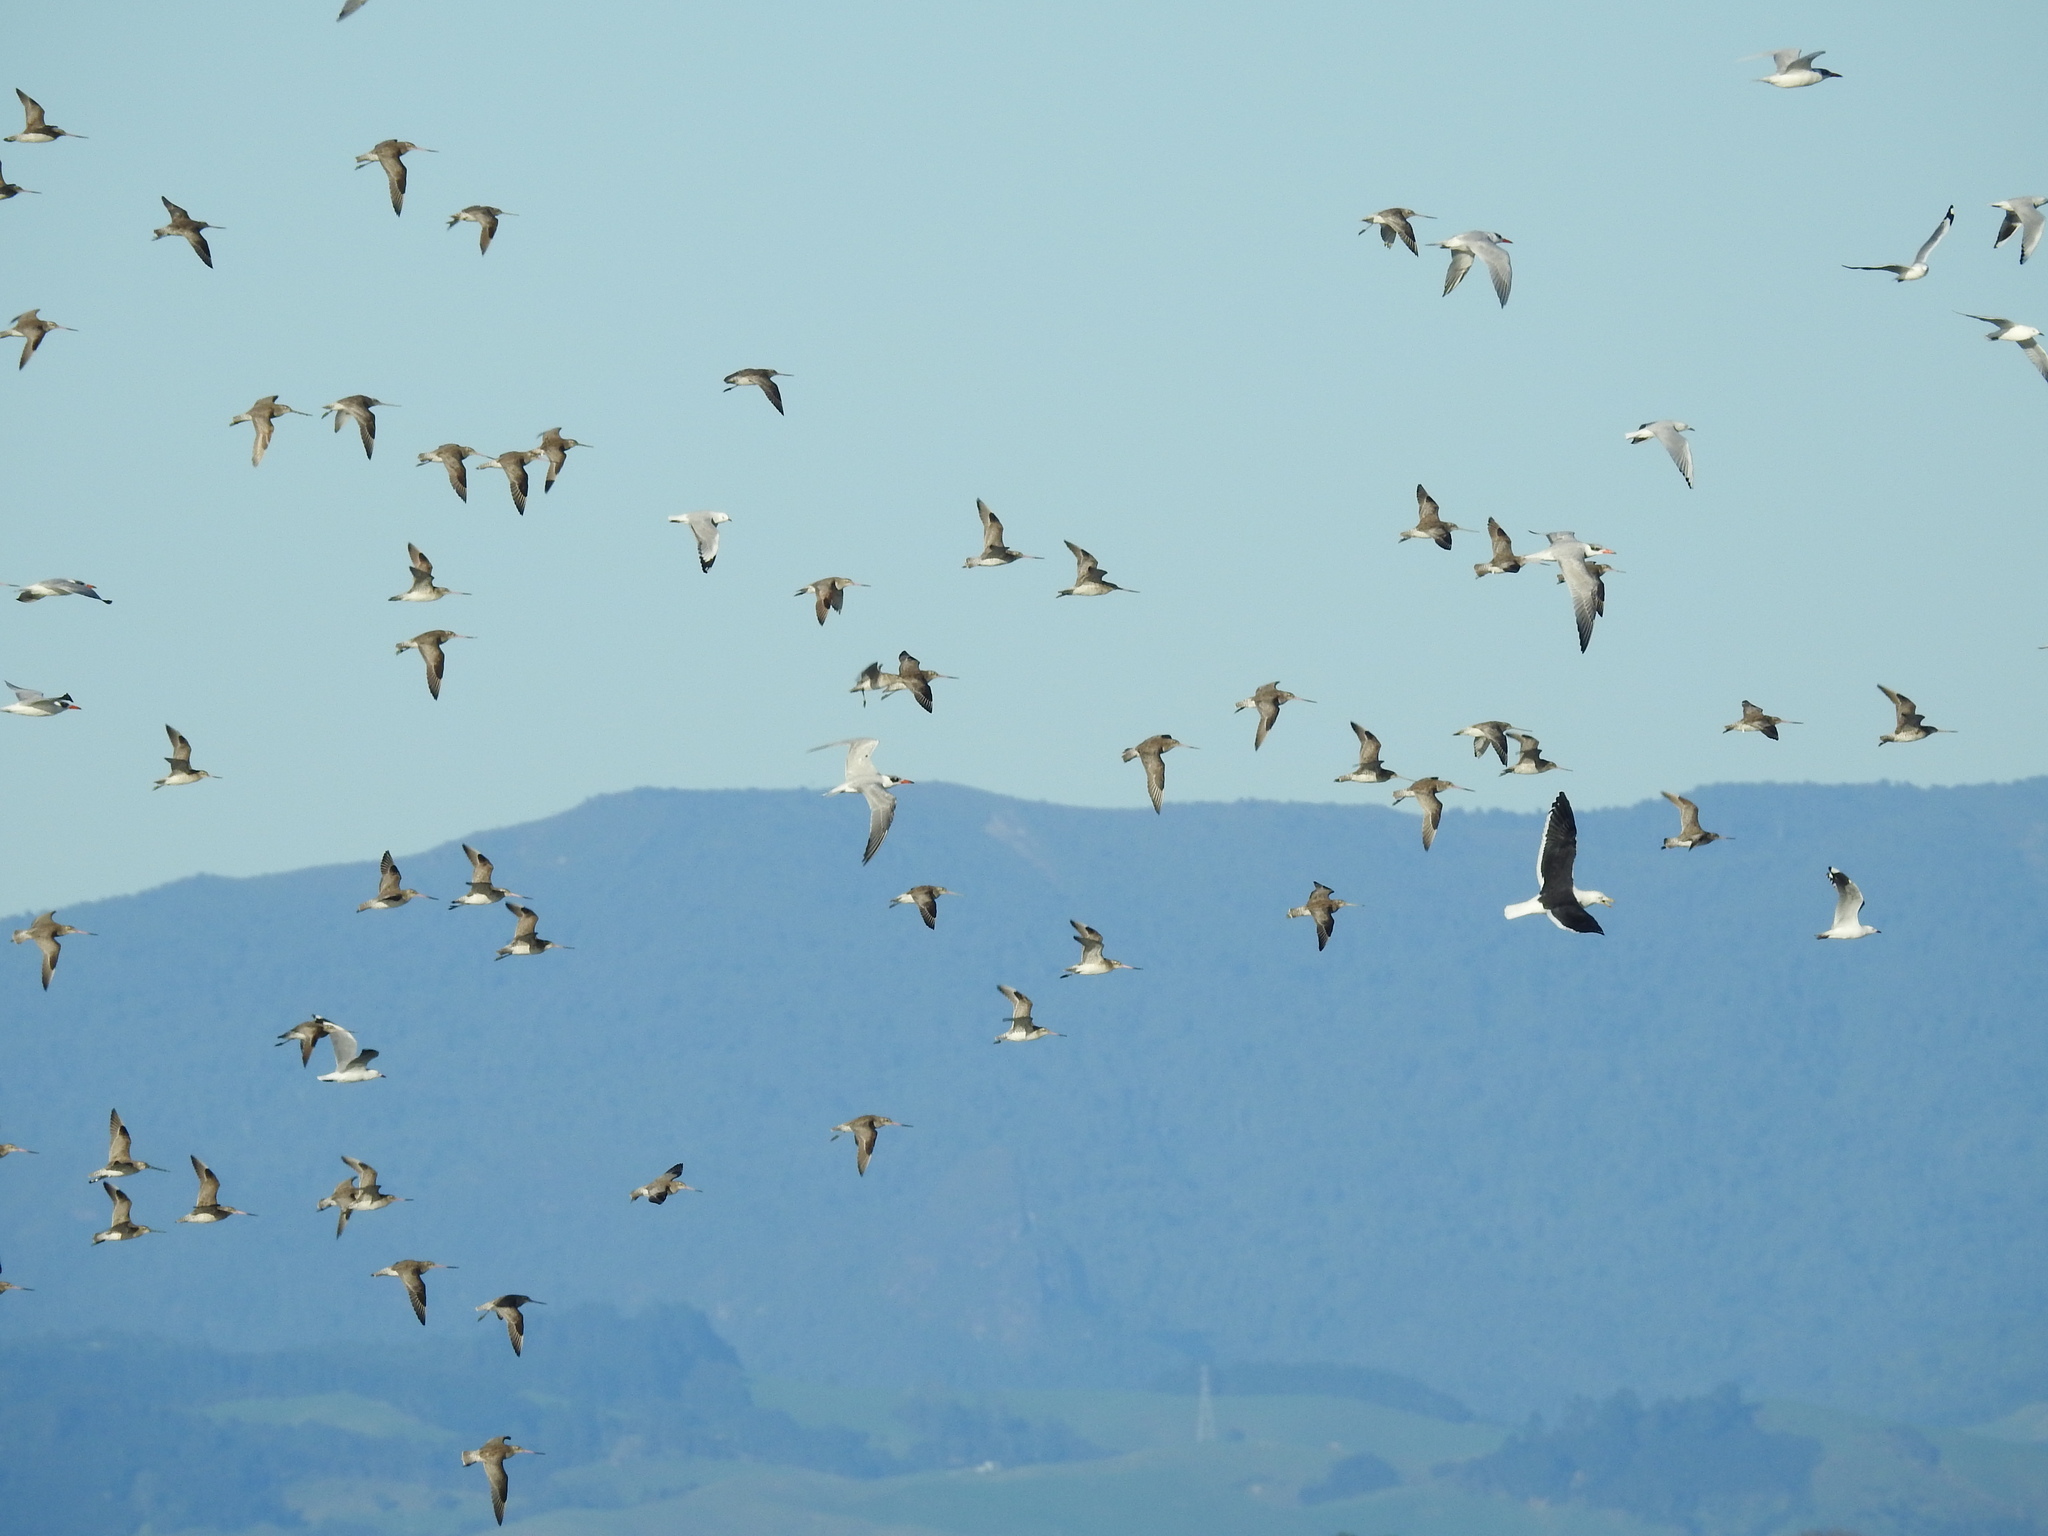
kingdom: Animalia
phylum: Chordata
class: Aves
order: Charadriiformes
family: Scolopacidae
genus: Limosa
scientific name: Limosa lapponica
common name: Bar-tailed godwit
